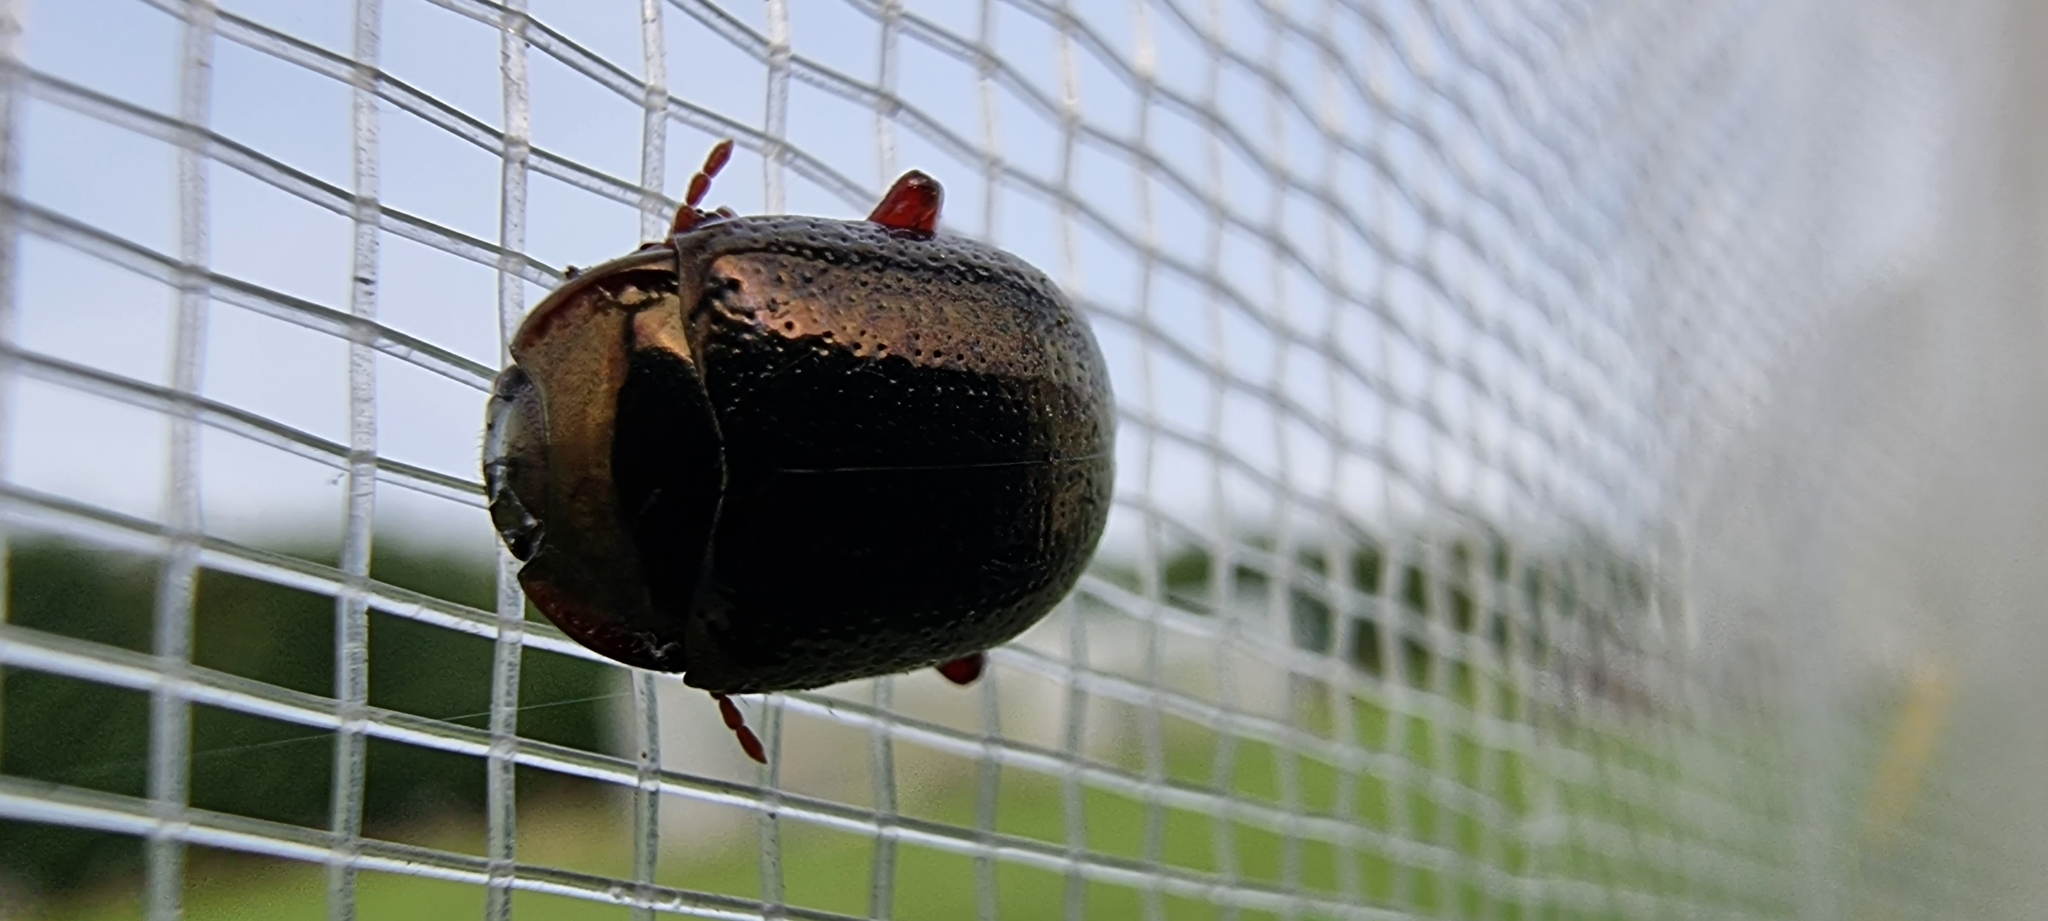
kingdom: Animalia
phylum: Arthropoda
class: Insecta
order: Coleoptera
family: Chrysomelidae
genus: Chrysolina
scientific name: Chrysolina bankii
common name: Leaf beetle
